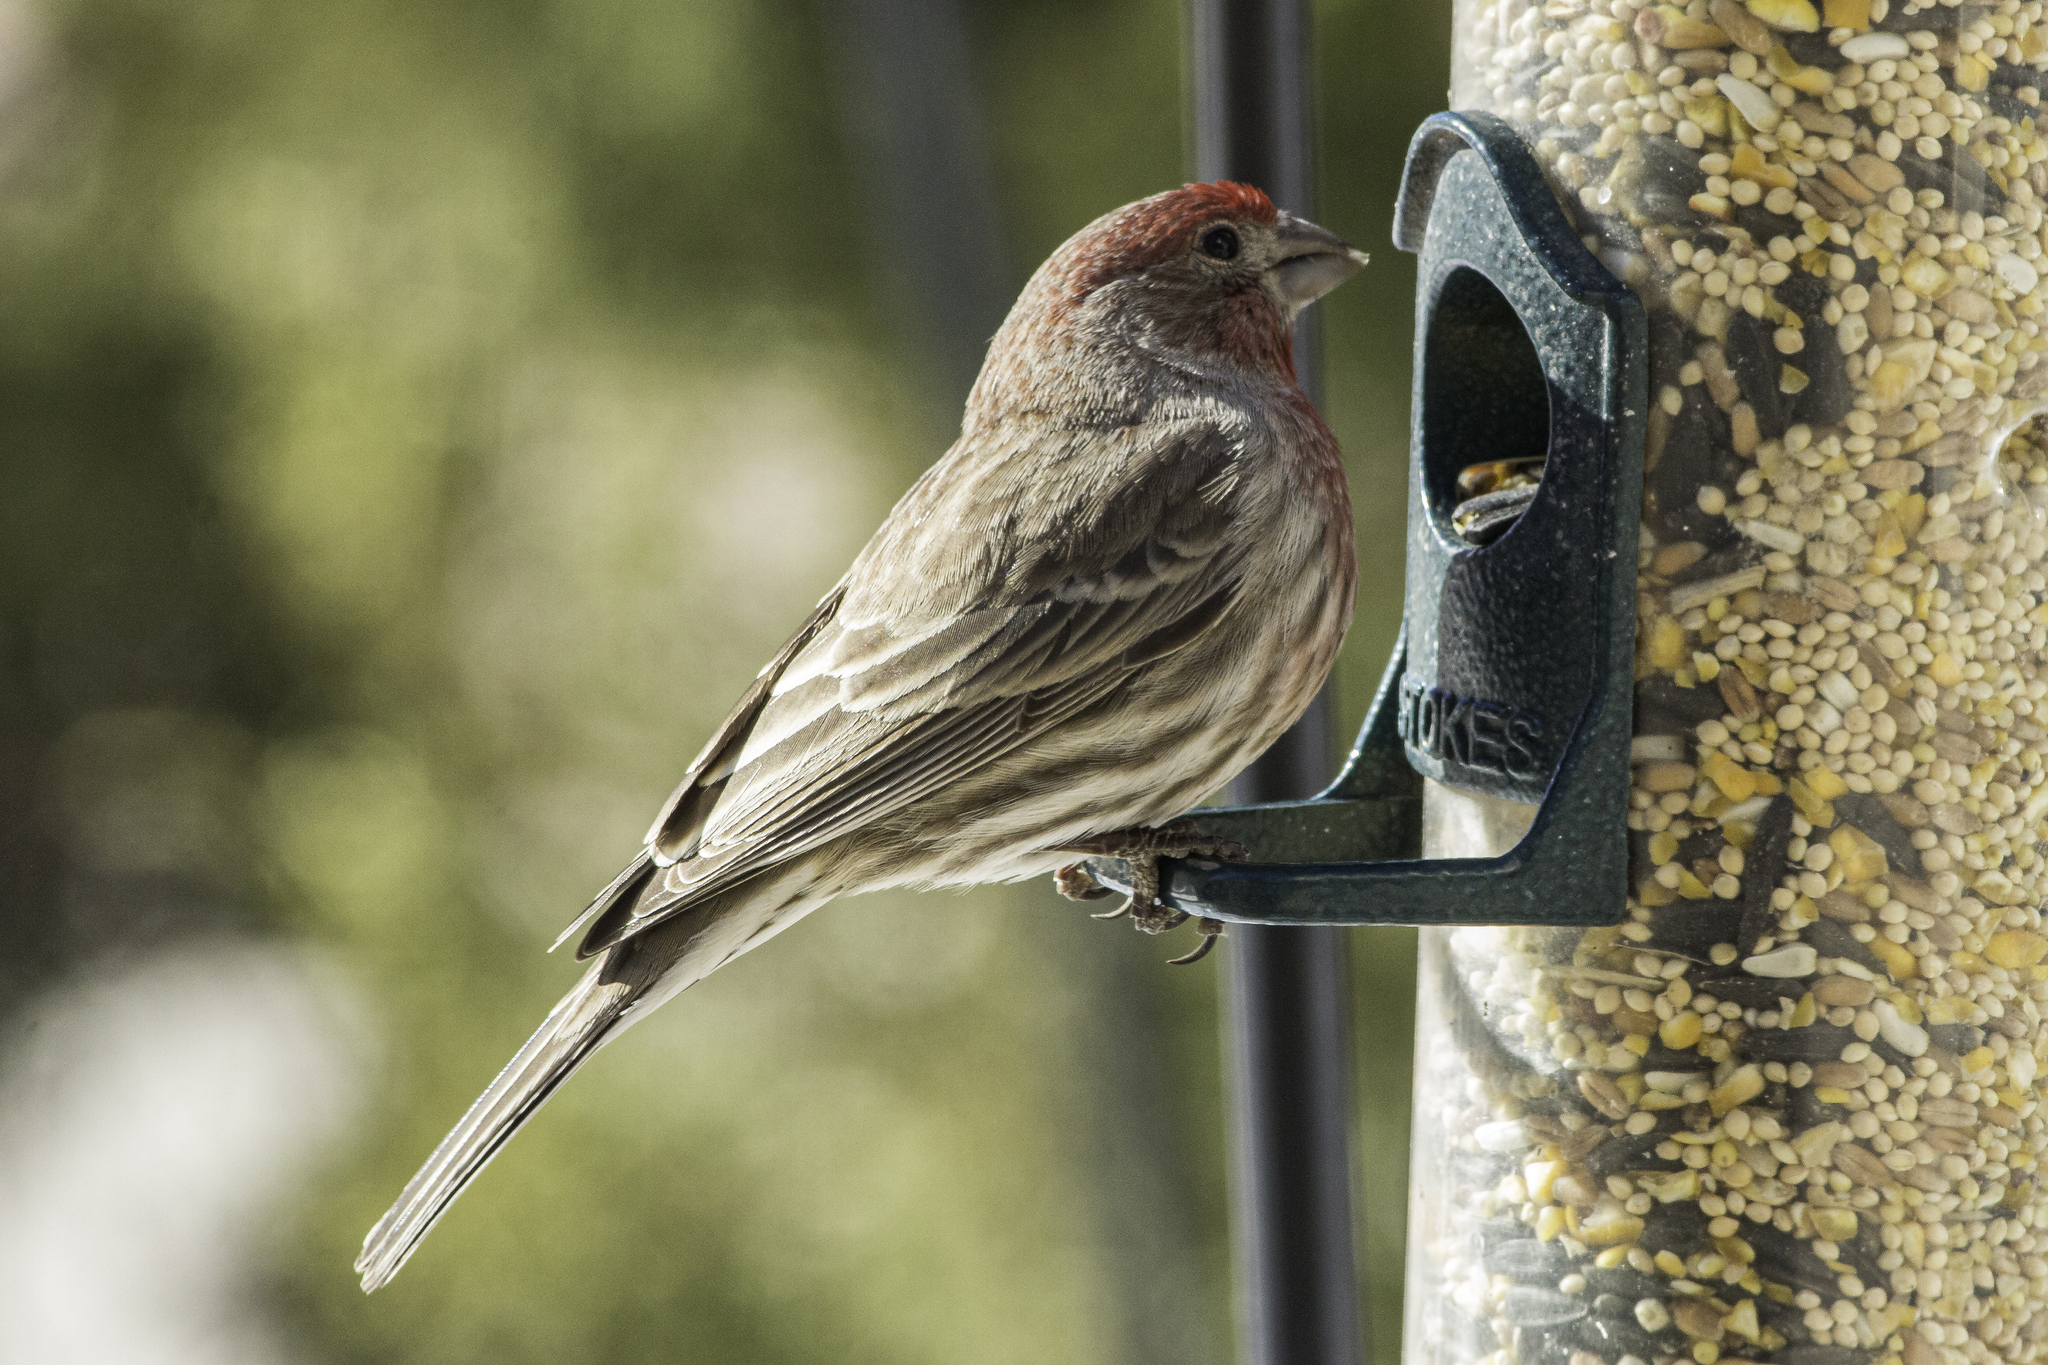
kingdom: Animalia
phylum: Chordata
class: Aves
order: Passeriformes
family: Fringillidae
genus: Haemorhous
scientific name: Haemorhous mexicanus
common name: House finch
